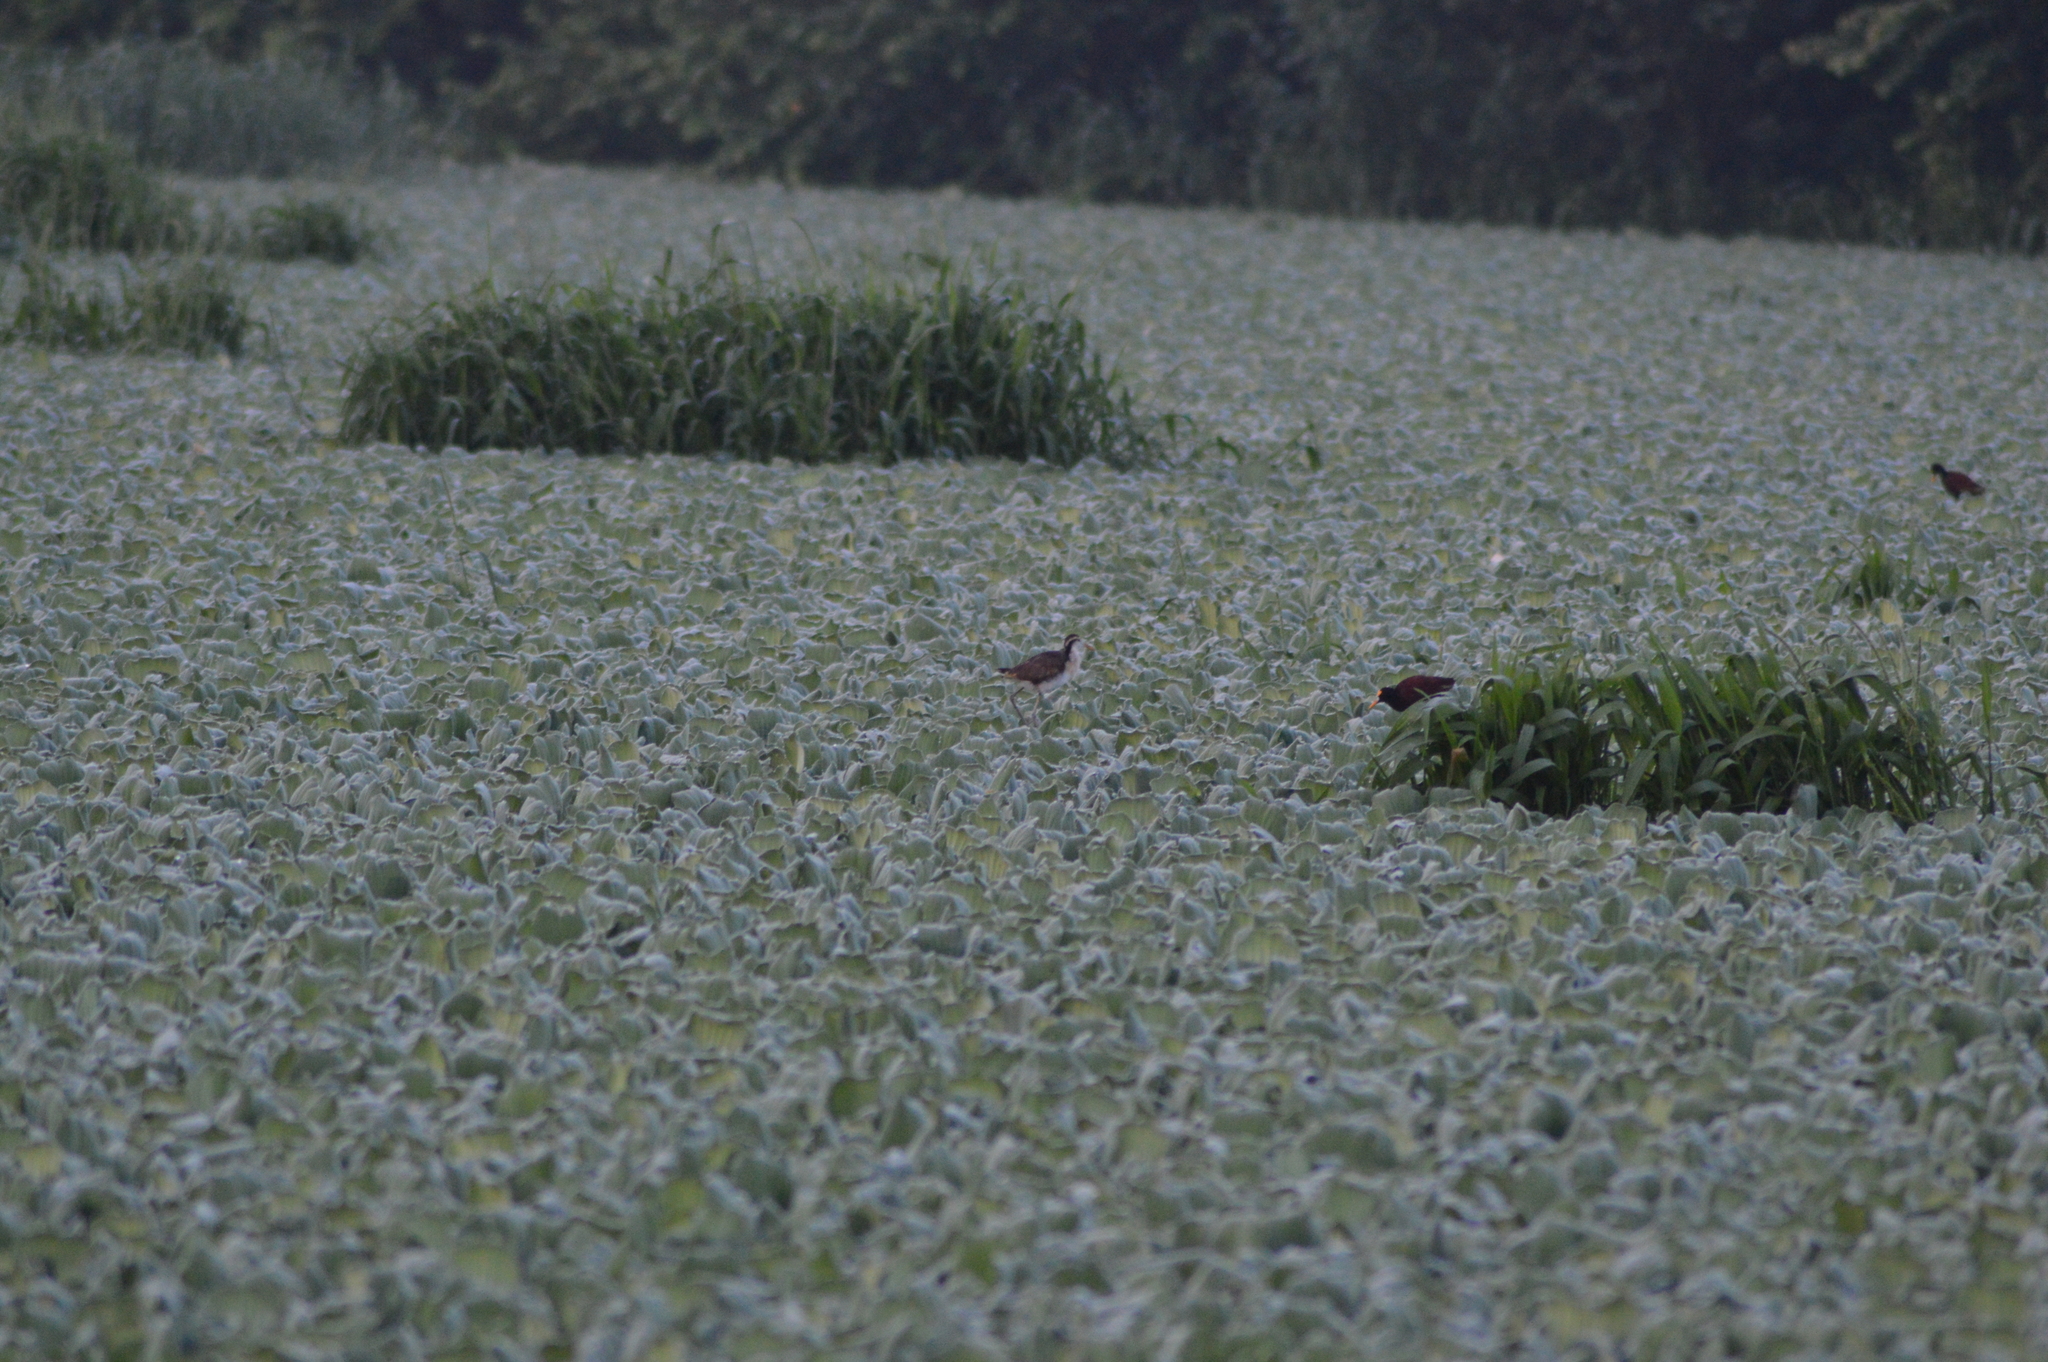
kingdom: Animalia
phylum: Chordata
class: Aves
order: Charadriiformes
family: Jacanidae
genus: Jacana
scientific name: Jacana spinosa
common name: Northern jacana
